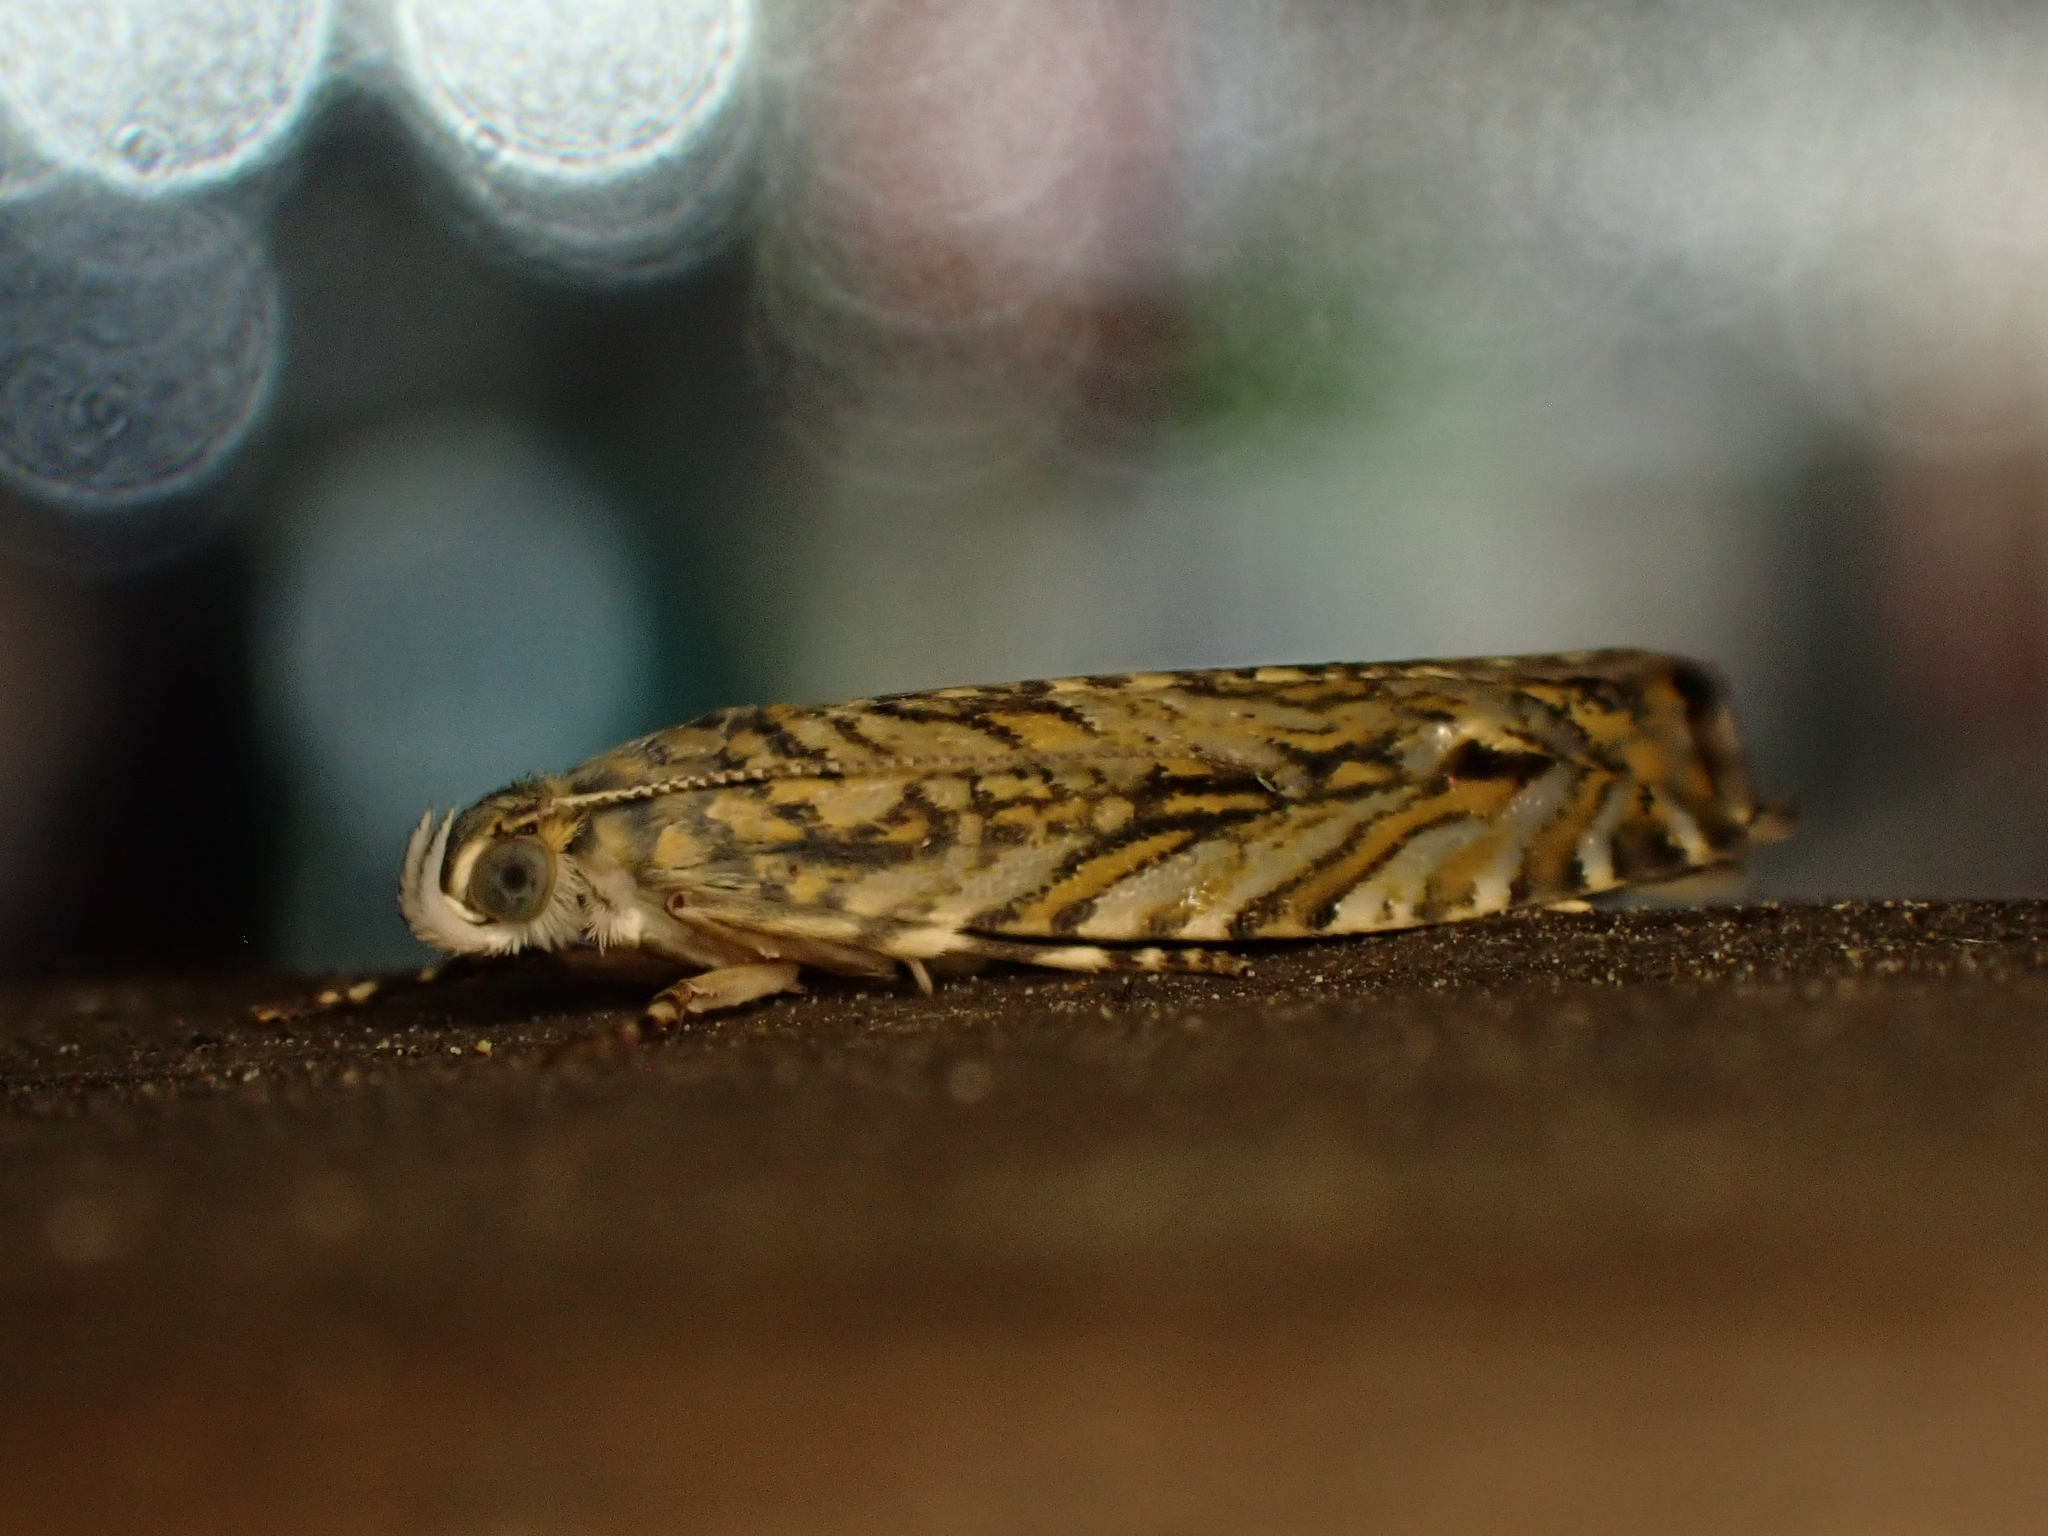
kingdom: Animalia
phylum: Arthropoda
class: Insecta
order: Lepidoptera
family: Plutellidae
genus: Doxophyrtis
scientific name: Doxophyrtis hydrocosma
